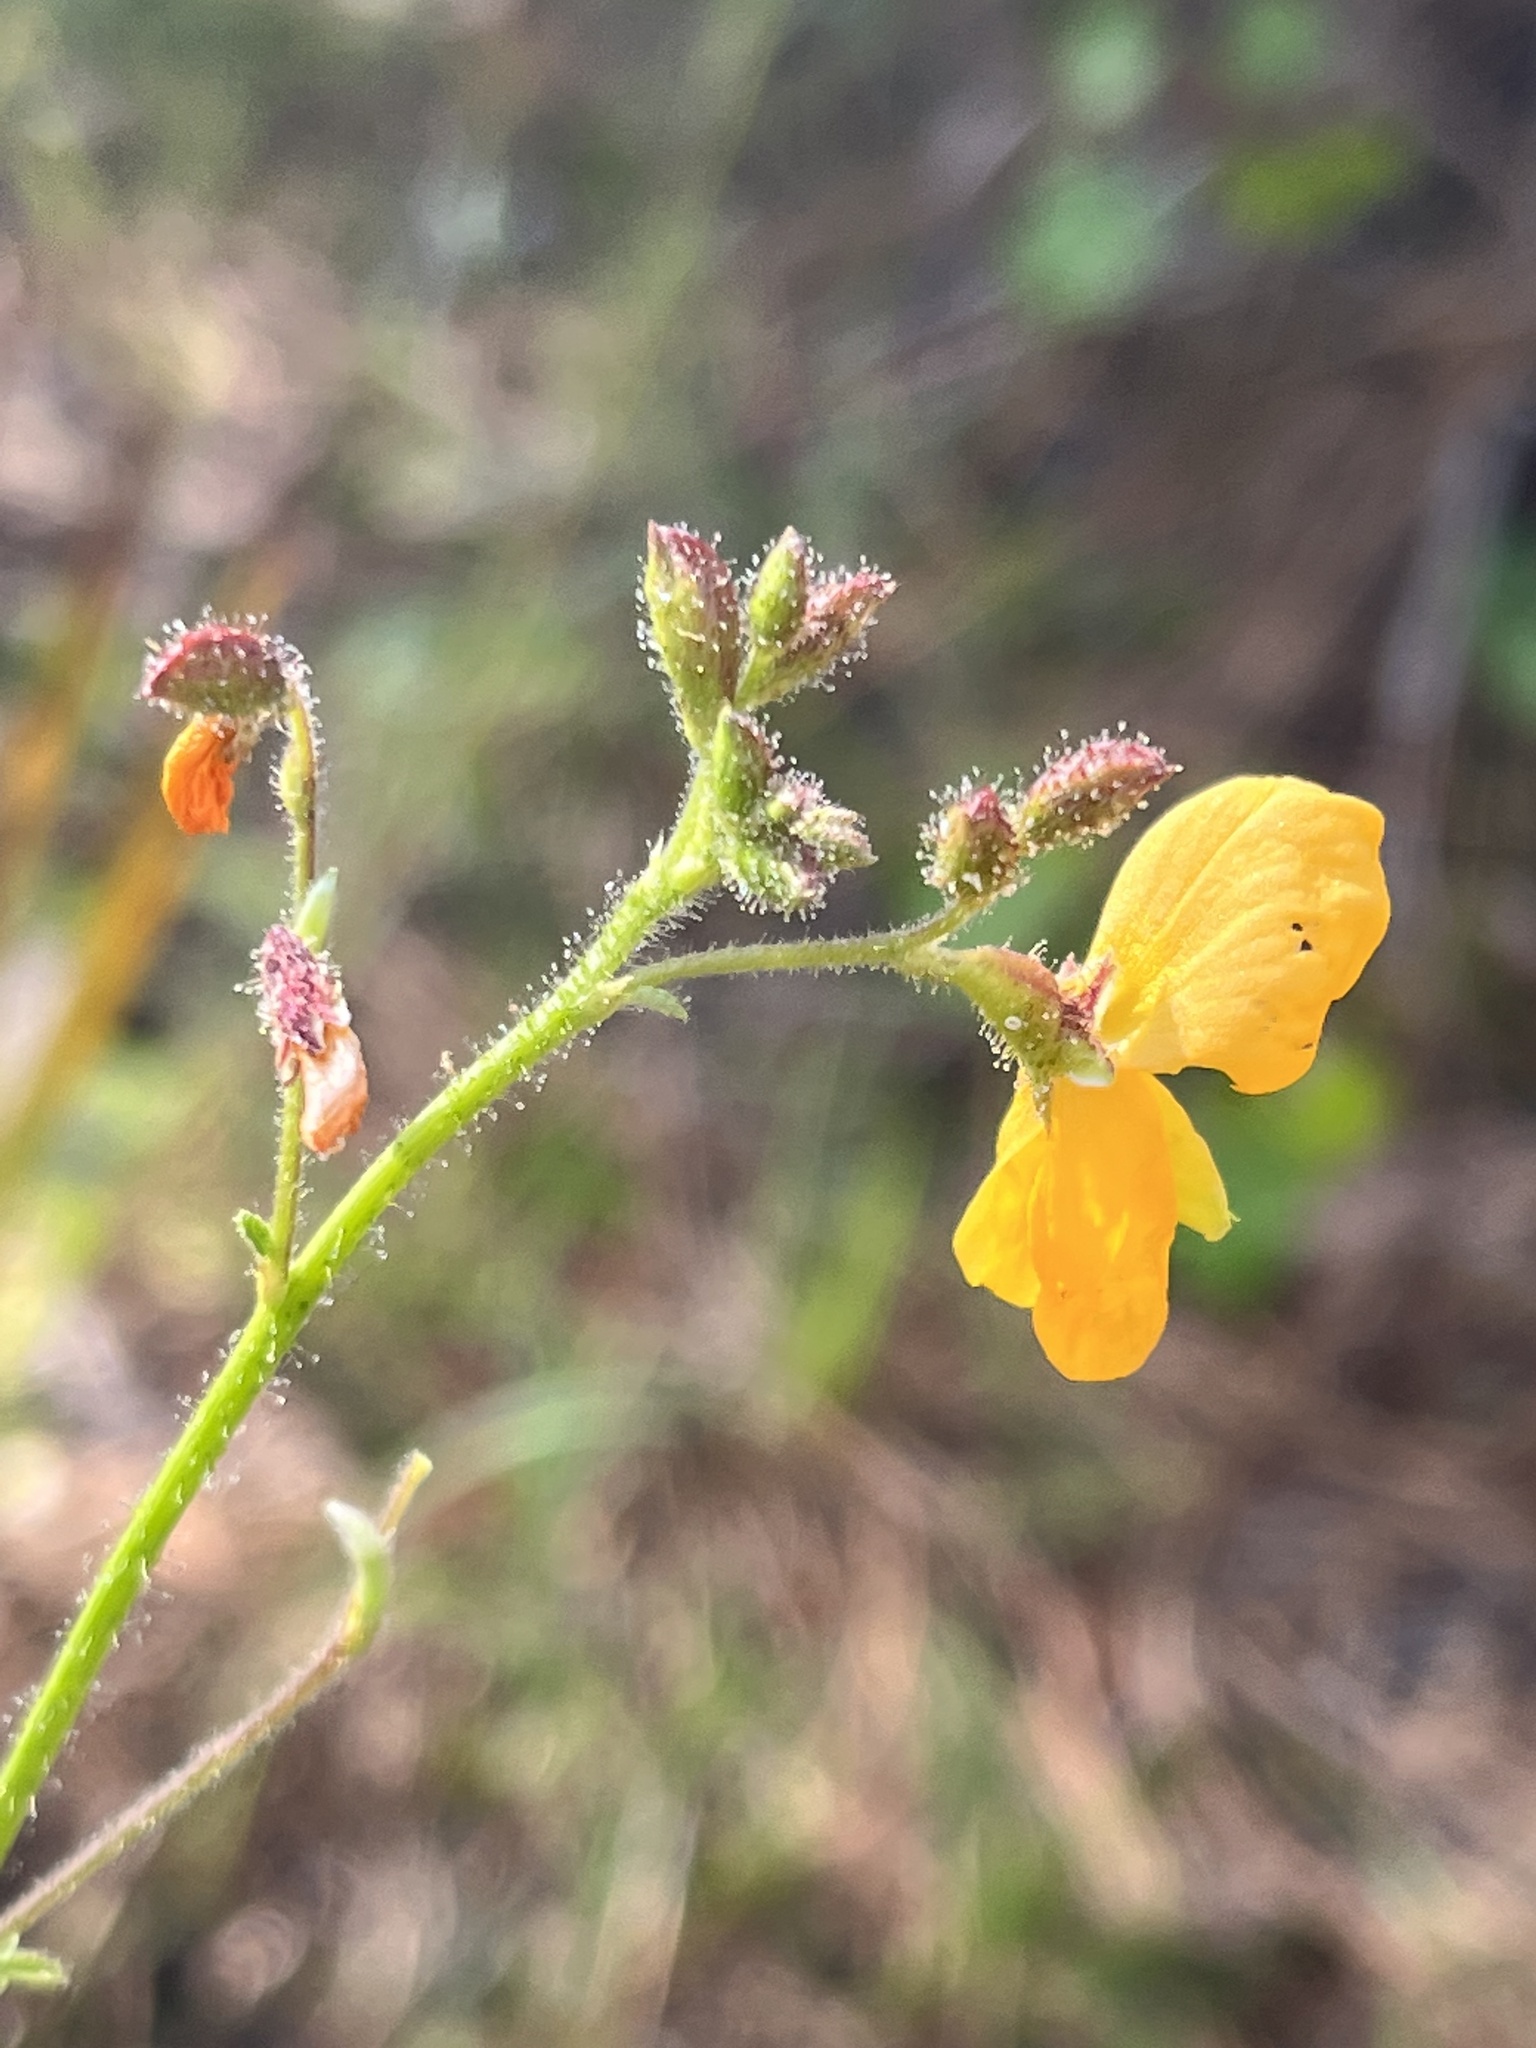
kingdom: Plantae
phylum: Tracheophyta
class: Magnoliopsida
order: Fabales
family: Fabaceae
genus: Chapmannia
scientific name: Chapmannia floridana
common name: Alicia
